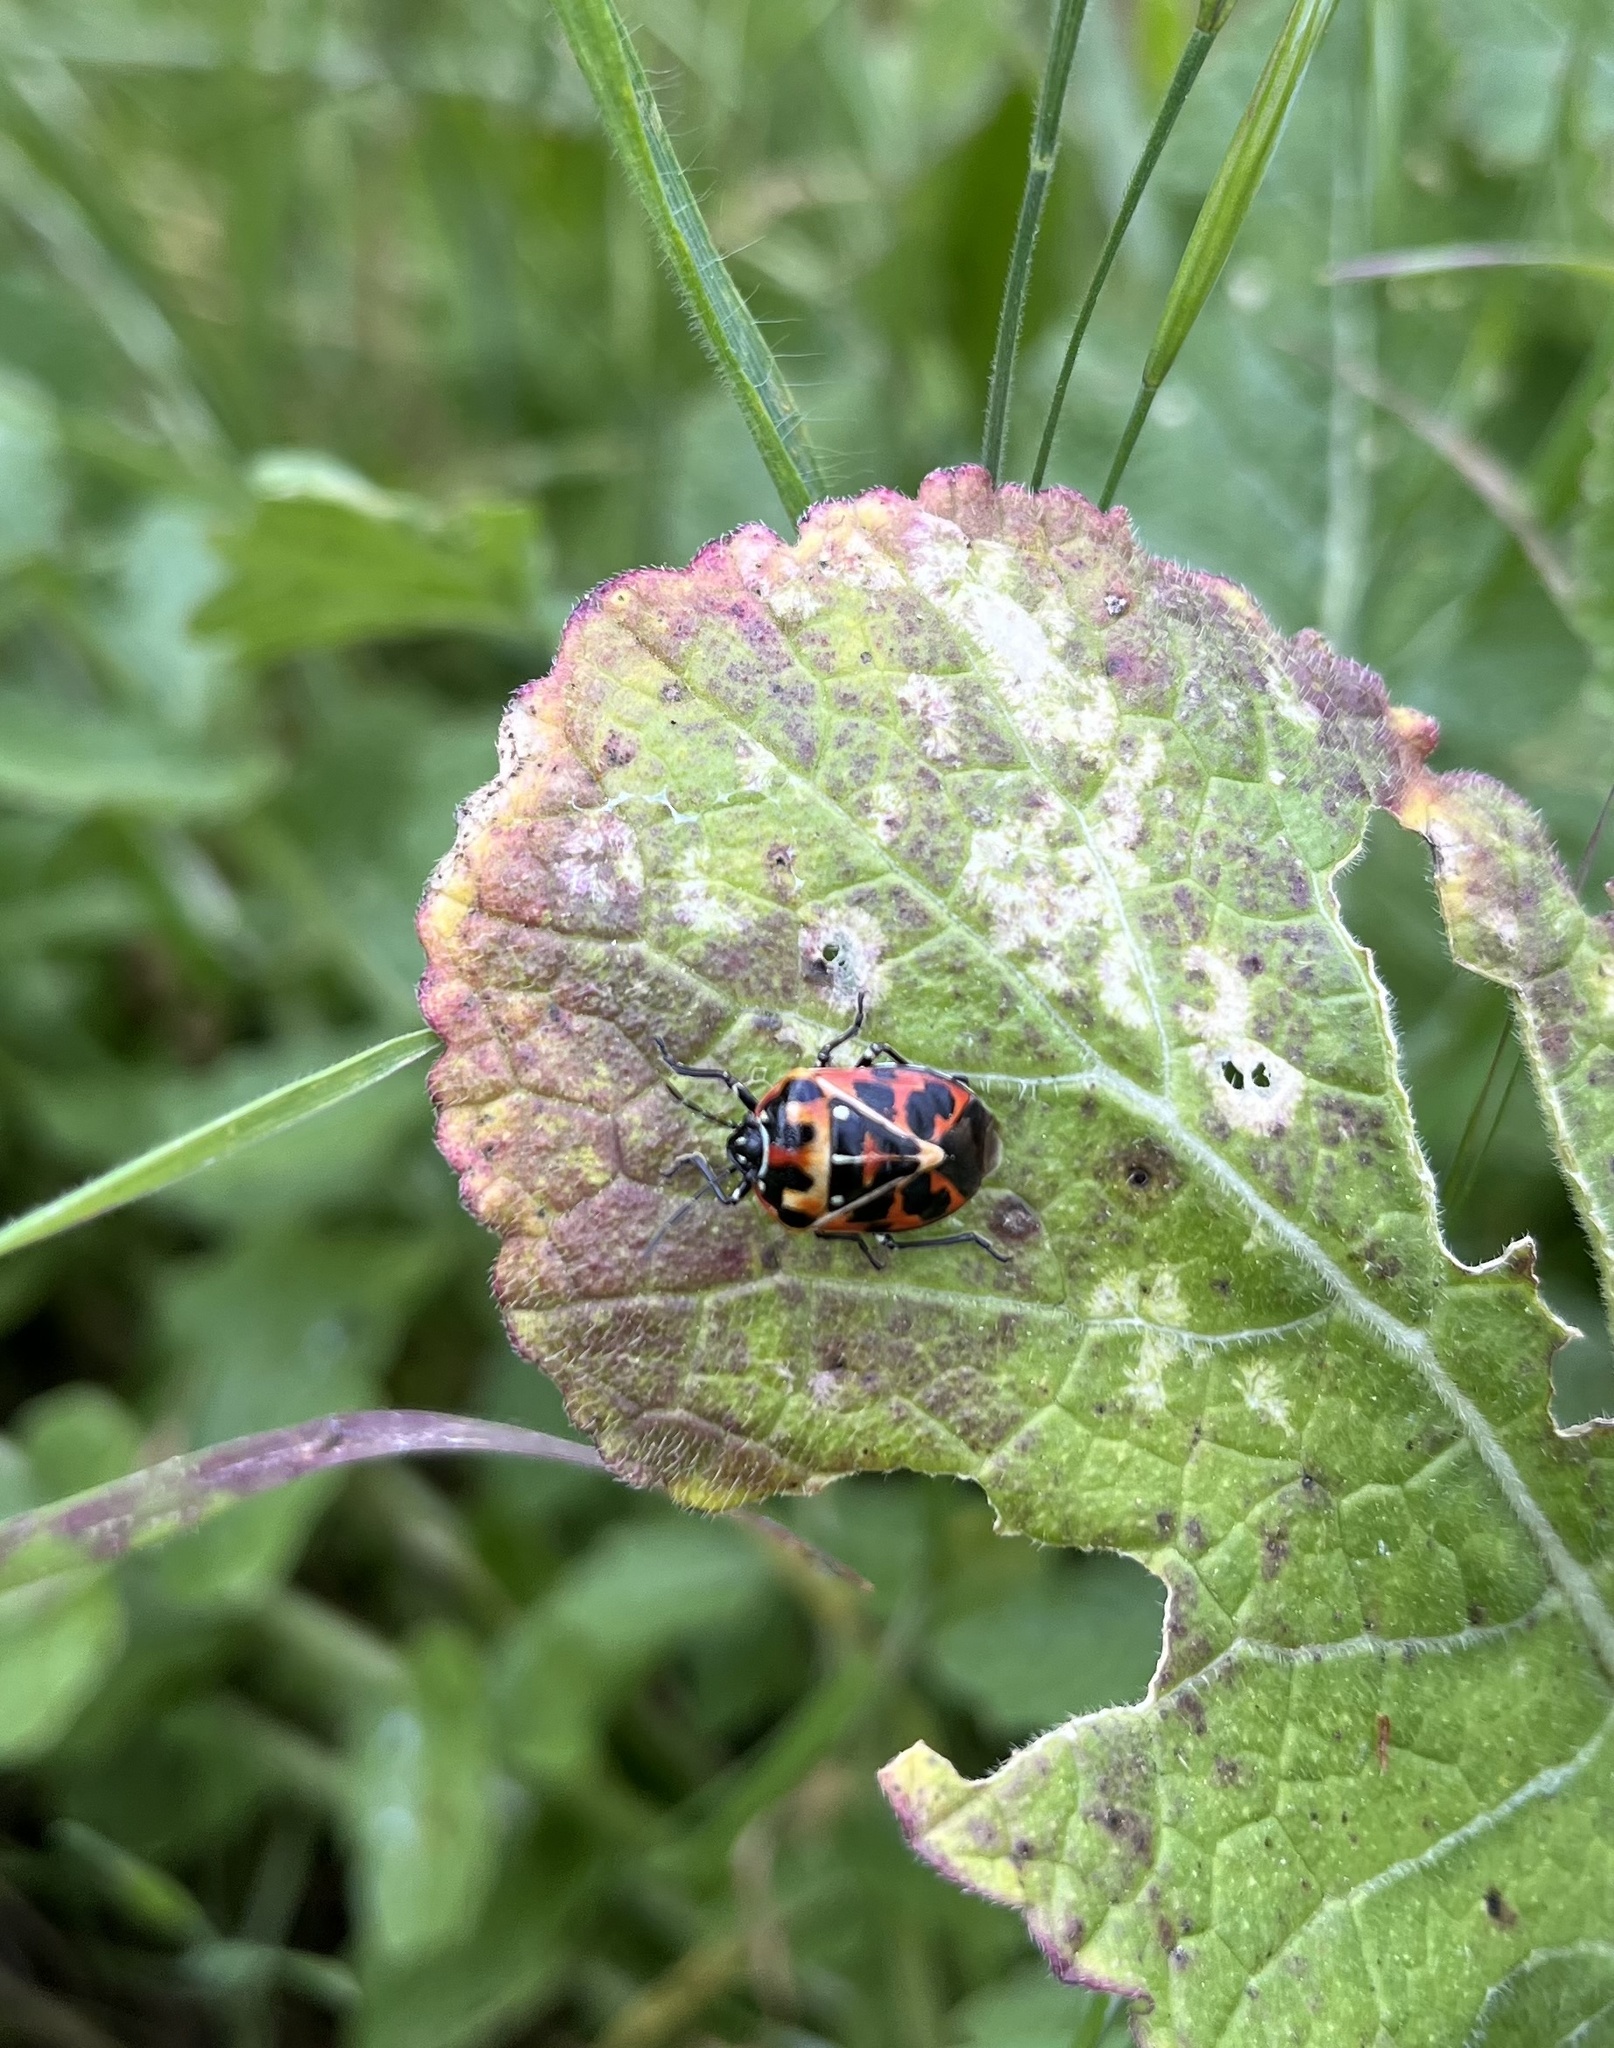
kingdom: Animalia
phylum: Arthropoda
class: Insecta
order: Hemiptera
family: Pentatomidae
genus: Murgantia
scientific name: Murgantia histrionica
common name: Harlequin bug
